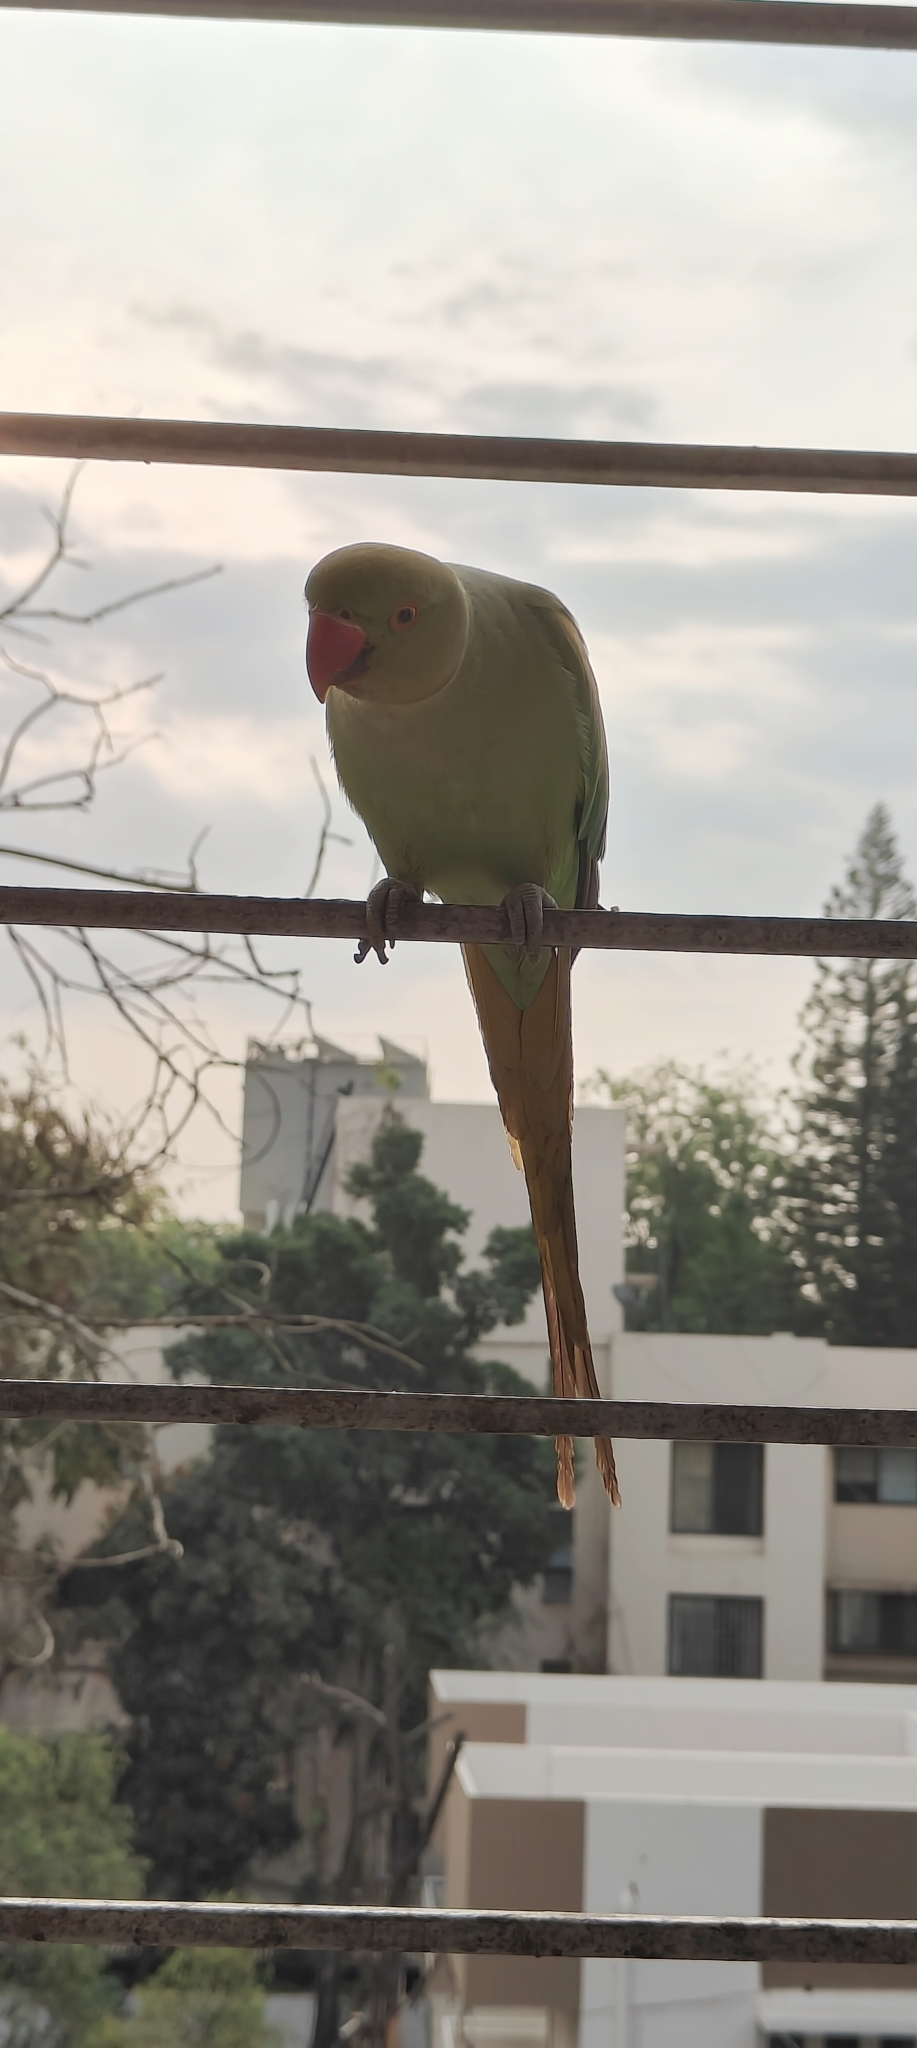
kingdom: Animalia
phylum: Chordata
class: Aves
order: Psittaciformes
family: Psittacidae
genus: Psittacula
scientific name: Psittacula krameri
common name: Rose-ringed parakeet
